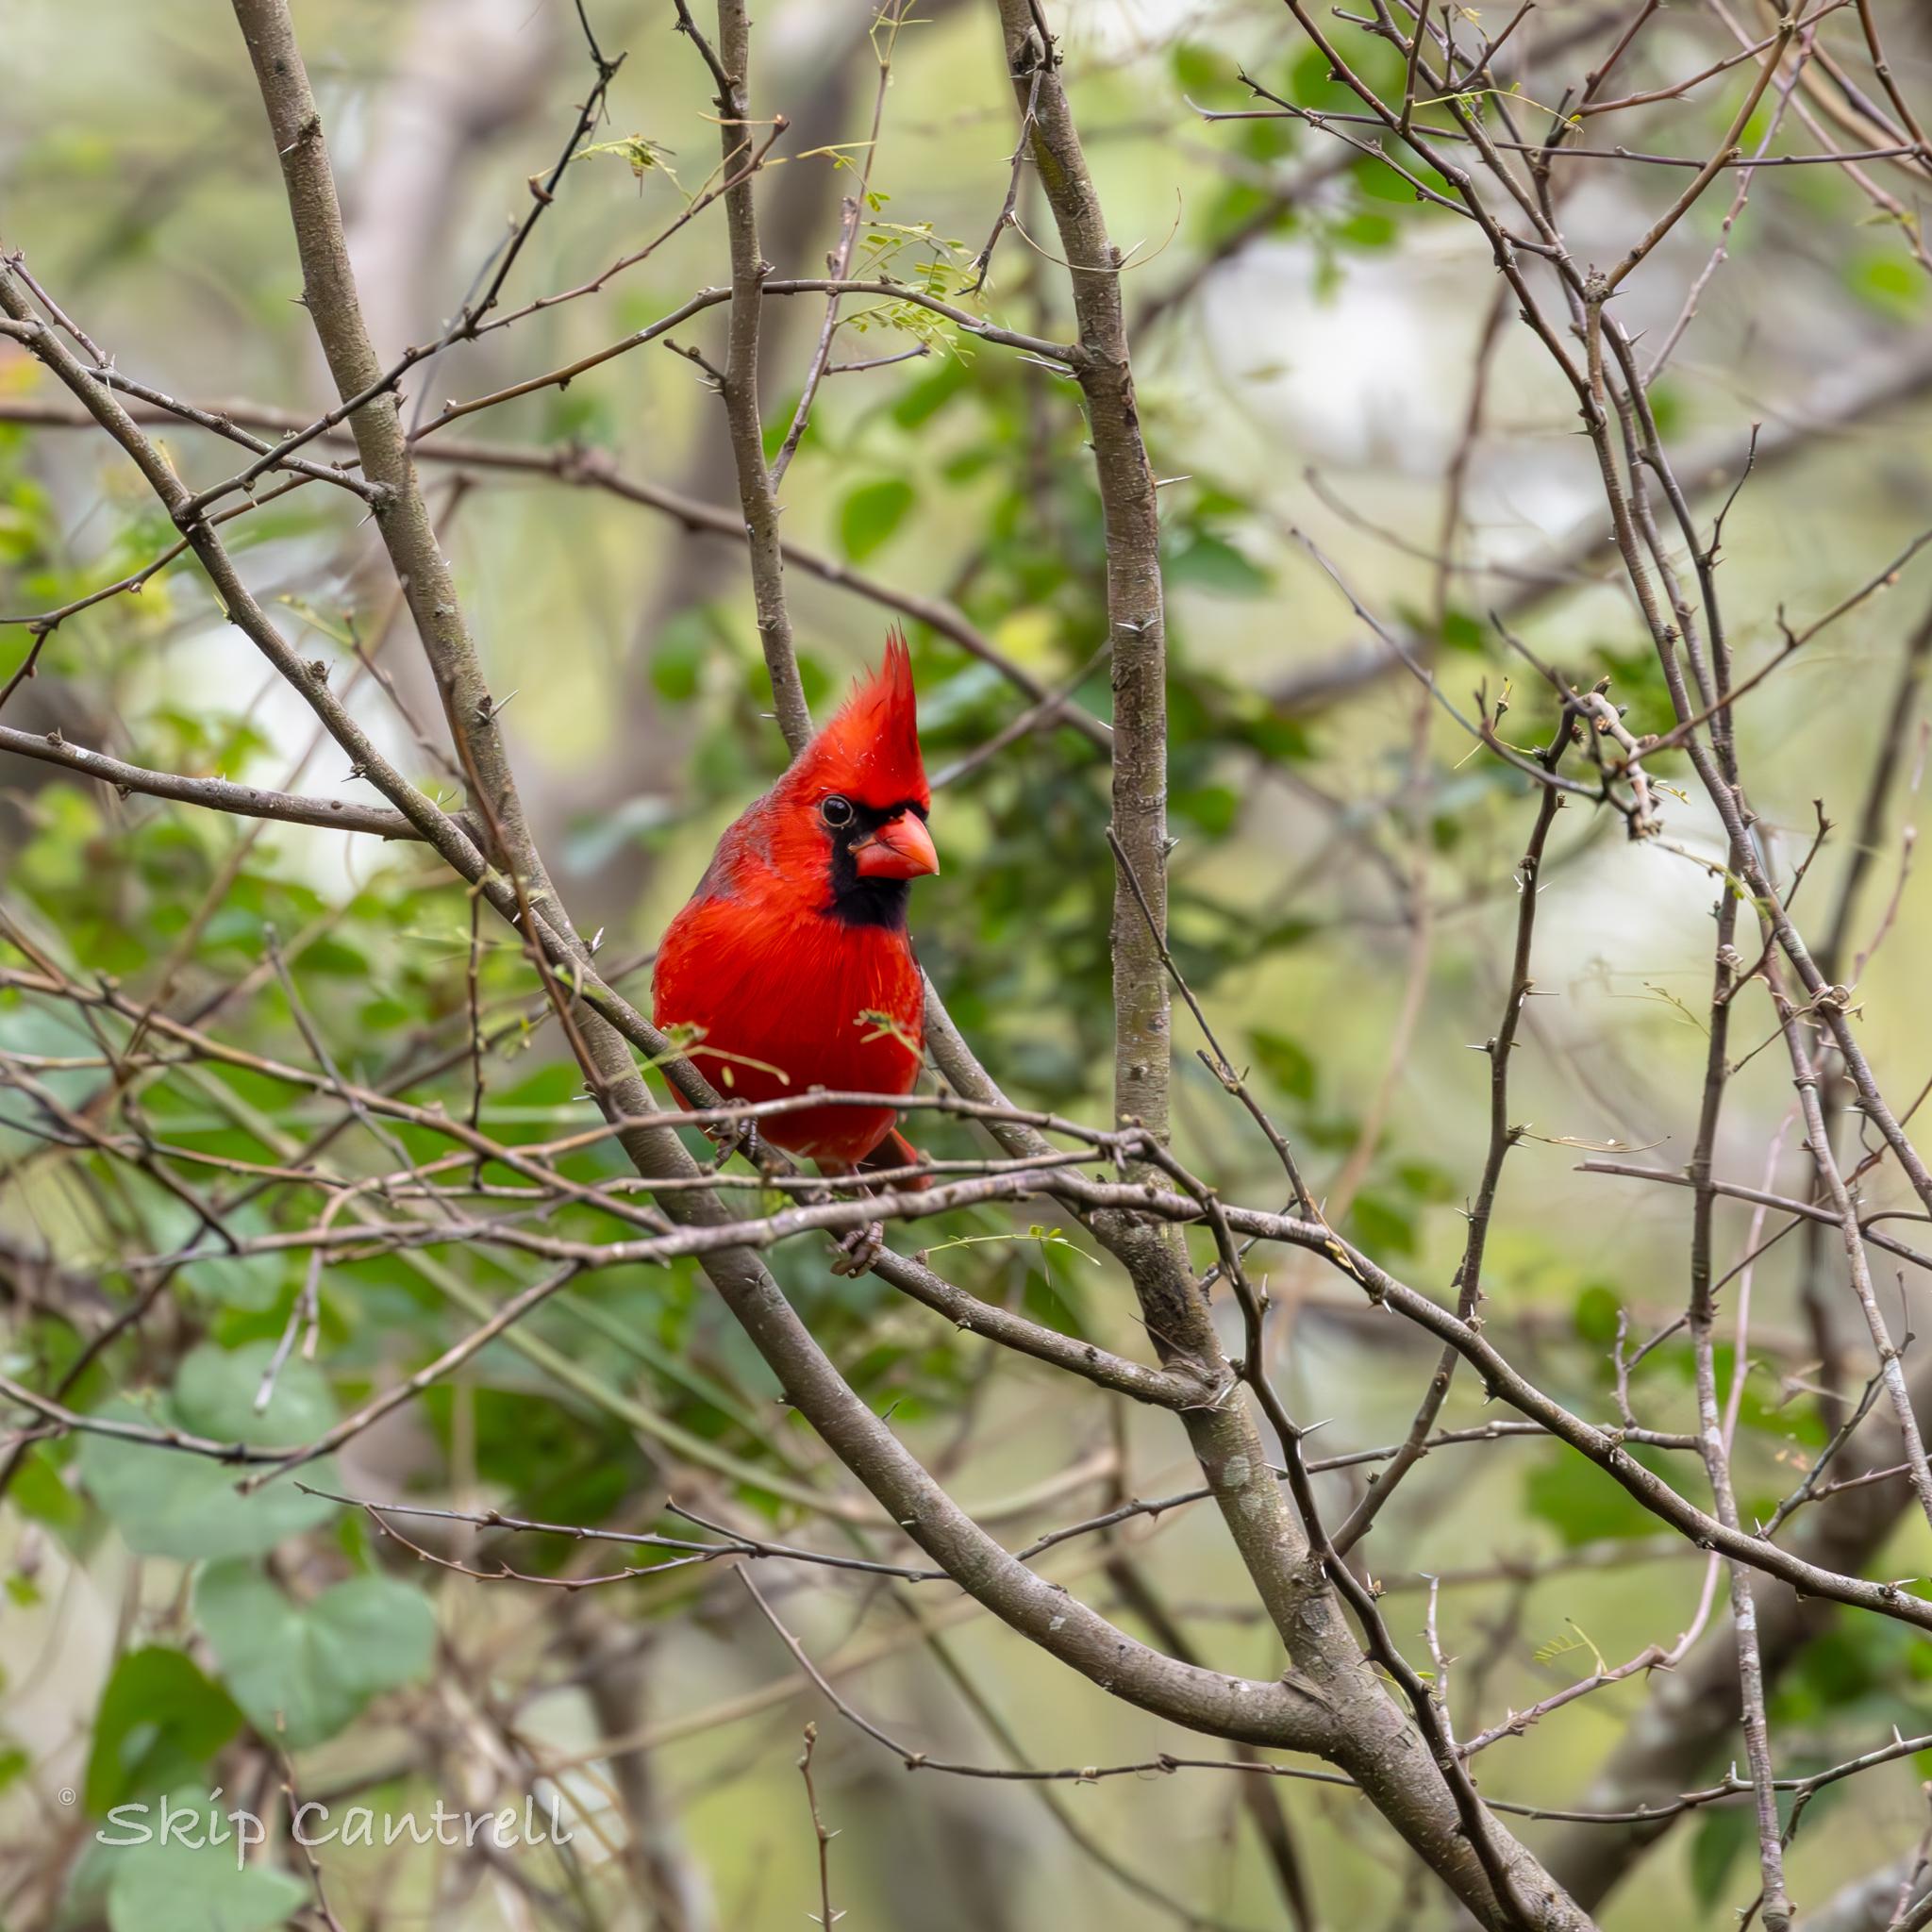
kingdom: Animalia
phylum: Chordata
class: Aves
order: Passeriformes
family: Cardinalidae
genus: Cardinalis
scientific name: Cardinalis cardinalis
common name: Northern cardinal
